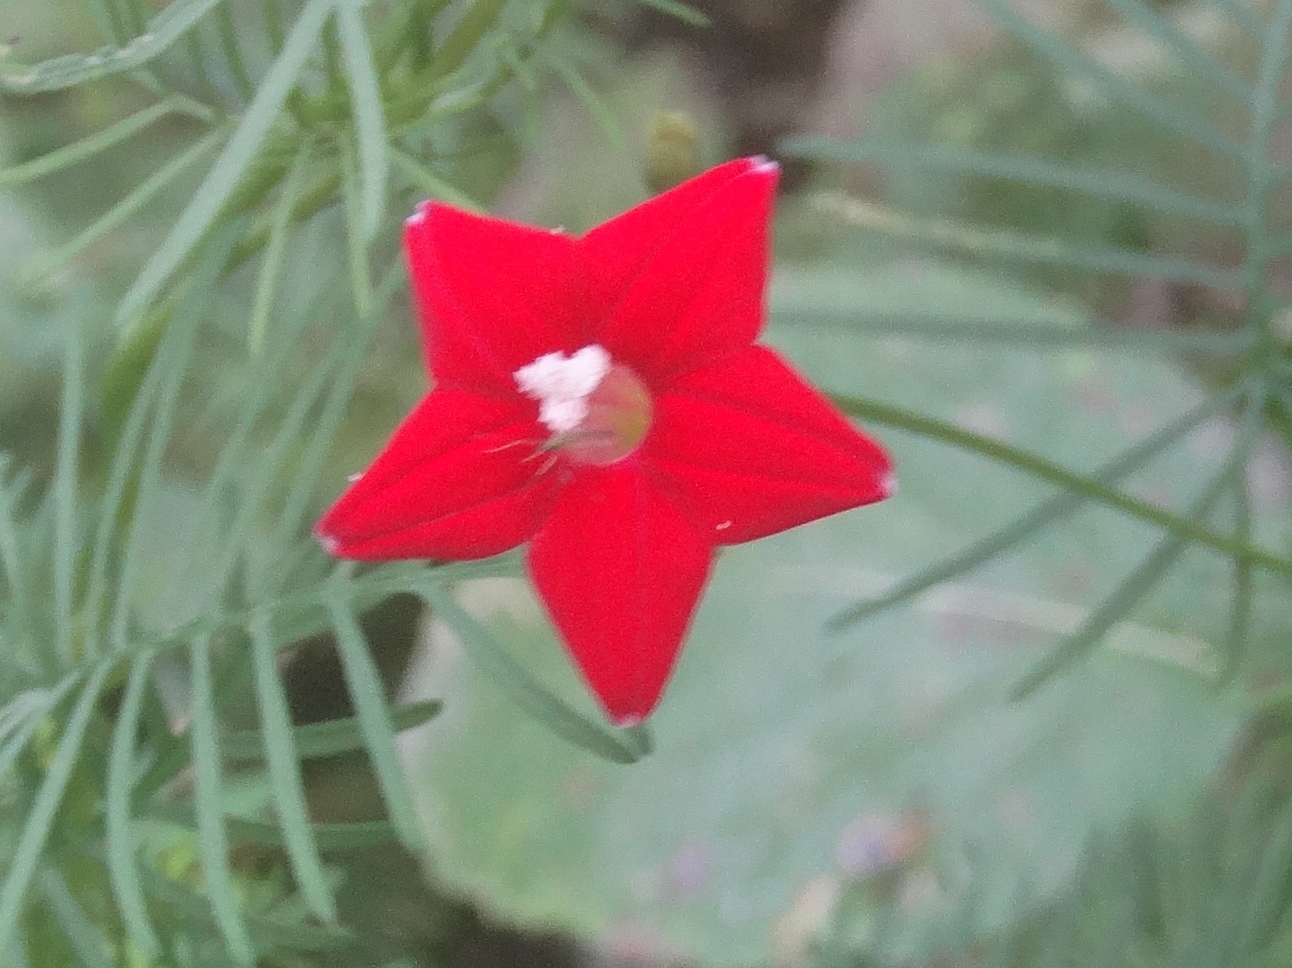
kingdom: Plantae
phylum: Tracheophyta
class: Magnoliopsida
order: Solanales
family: Convolvulaceae
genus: Ipomoea
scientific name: Ipomoea quamoclit
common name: Cypress vine
